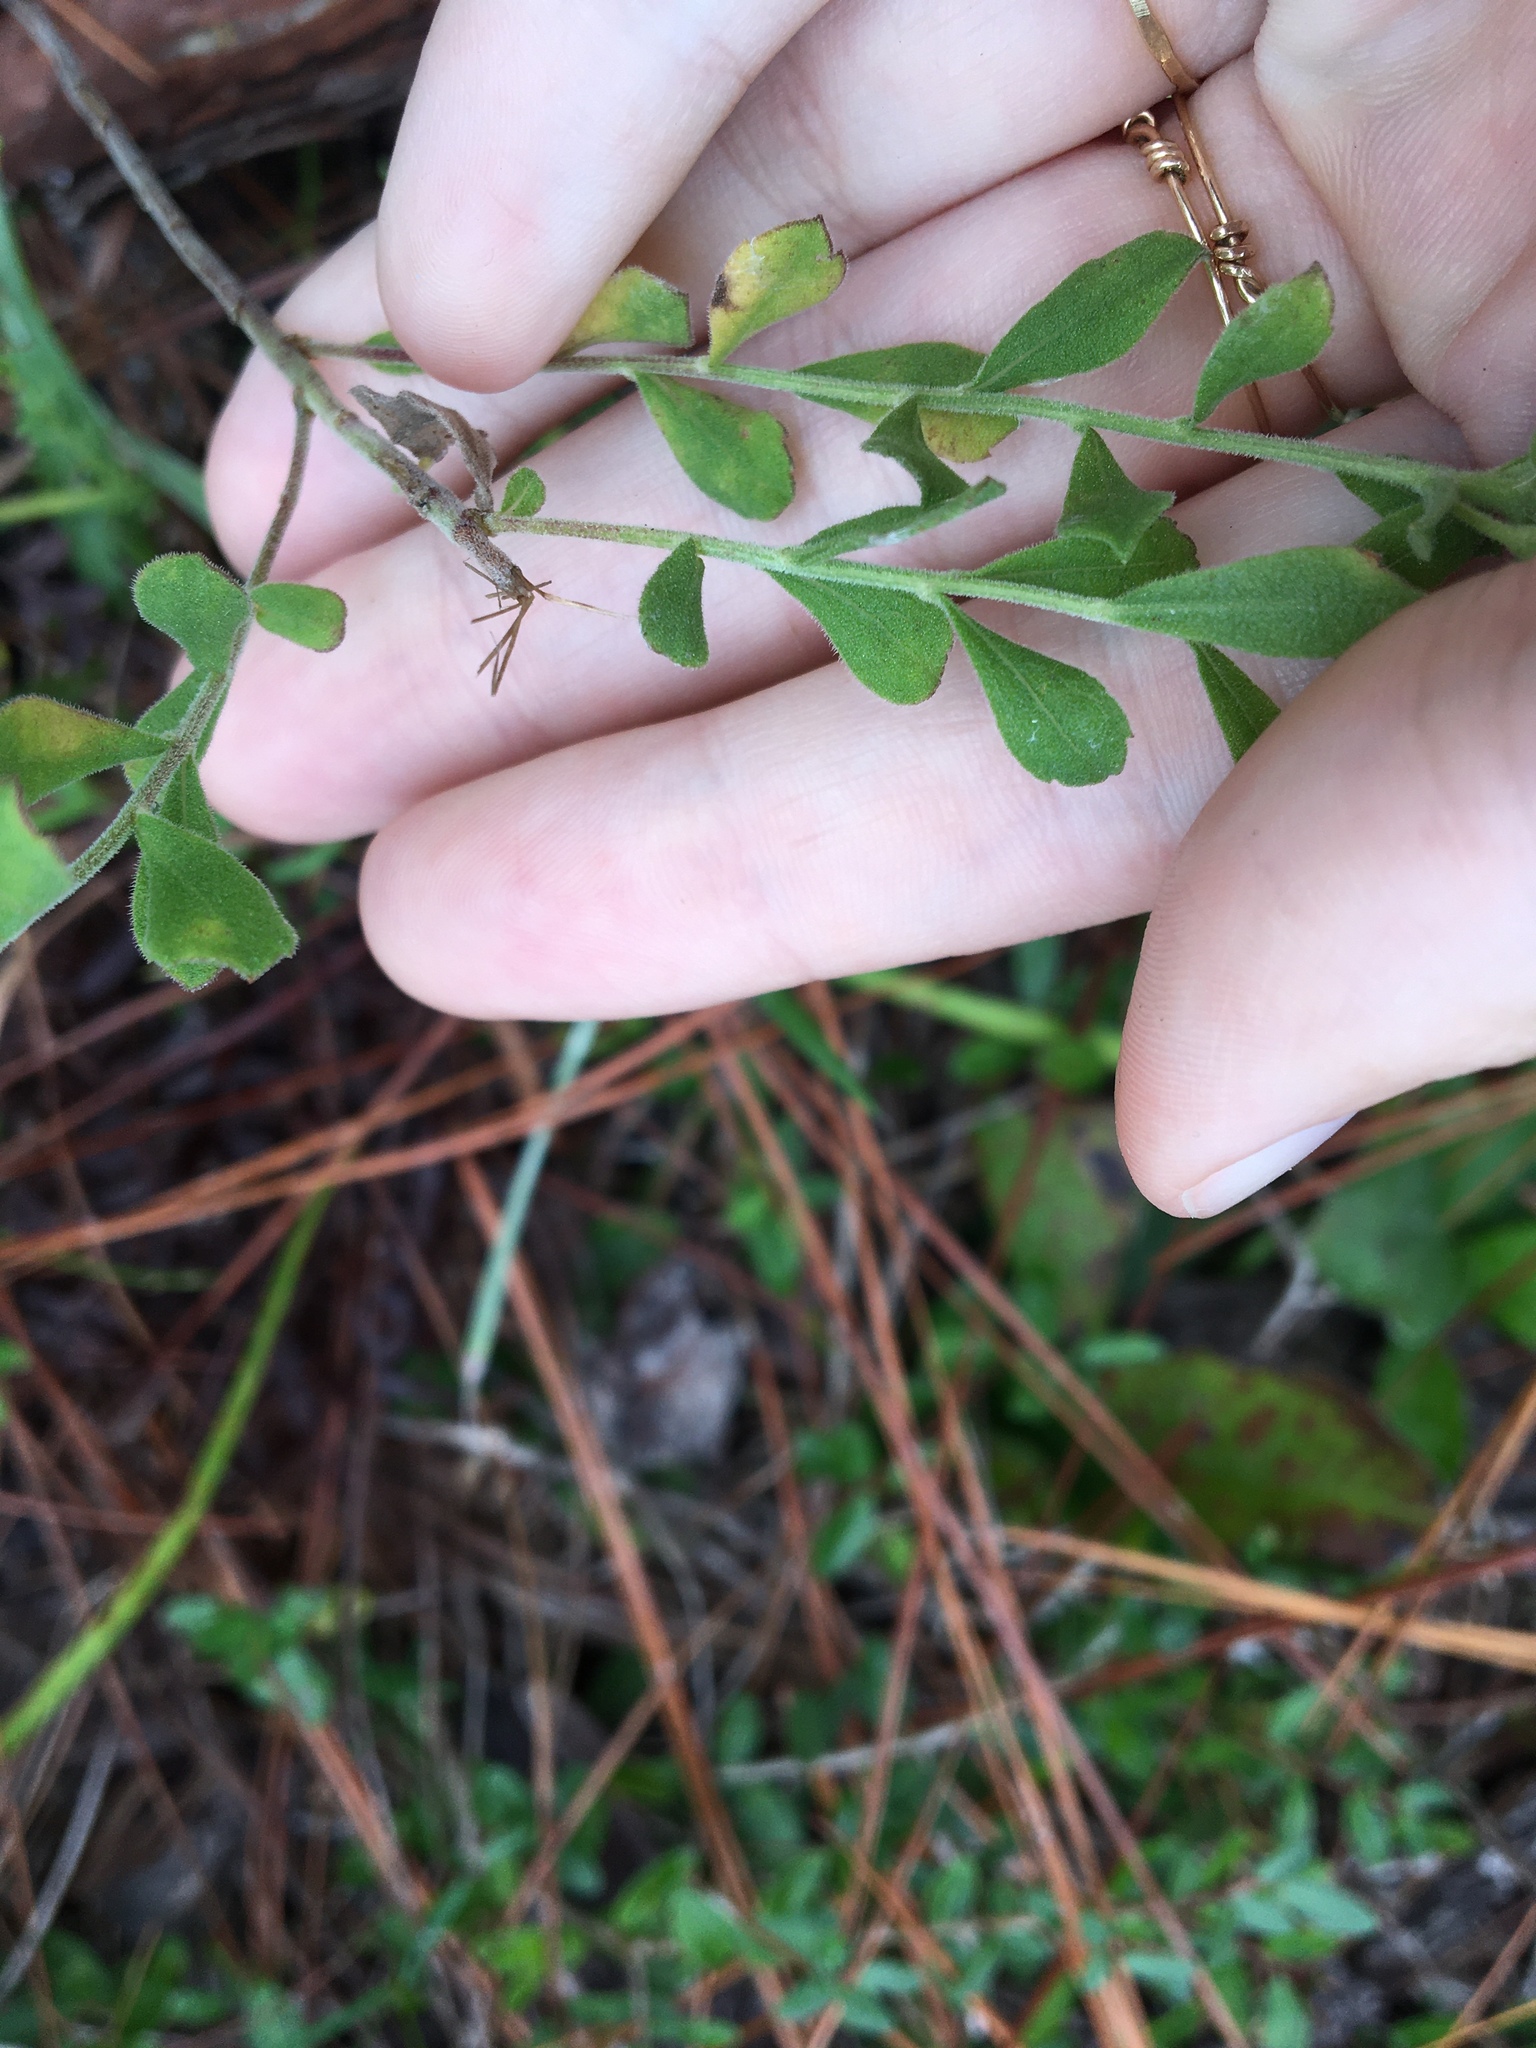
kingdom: Plantae
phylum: Tracheophyta
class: Magnoliopsida
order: Asterales
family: Asteraceae
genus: Sericocarpus
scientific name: Sericocarpus tortifolius
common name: Dixie aster
